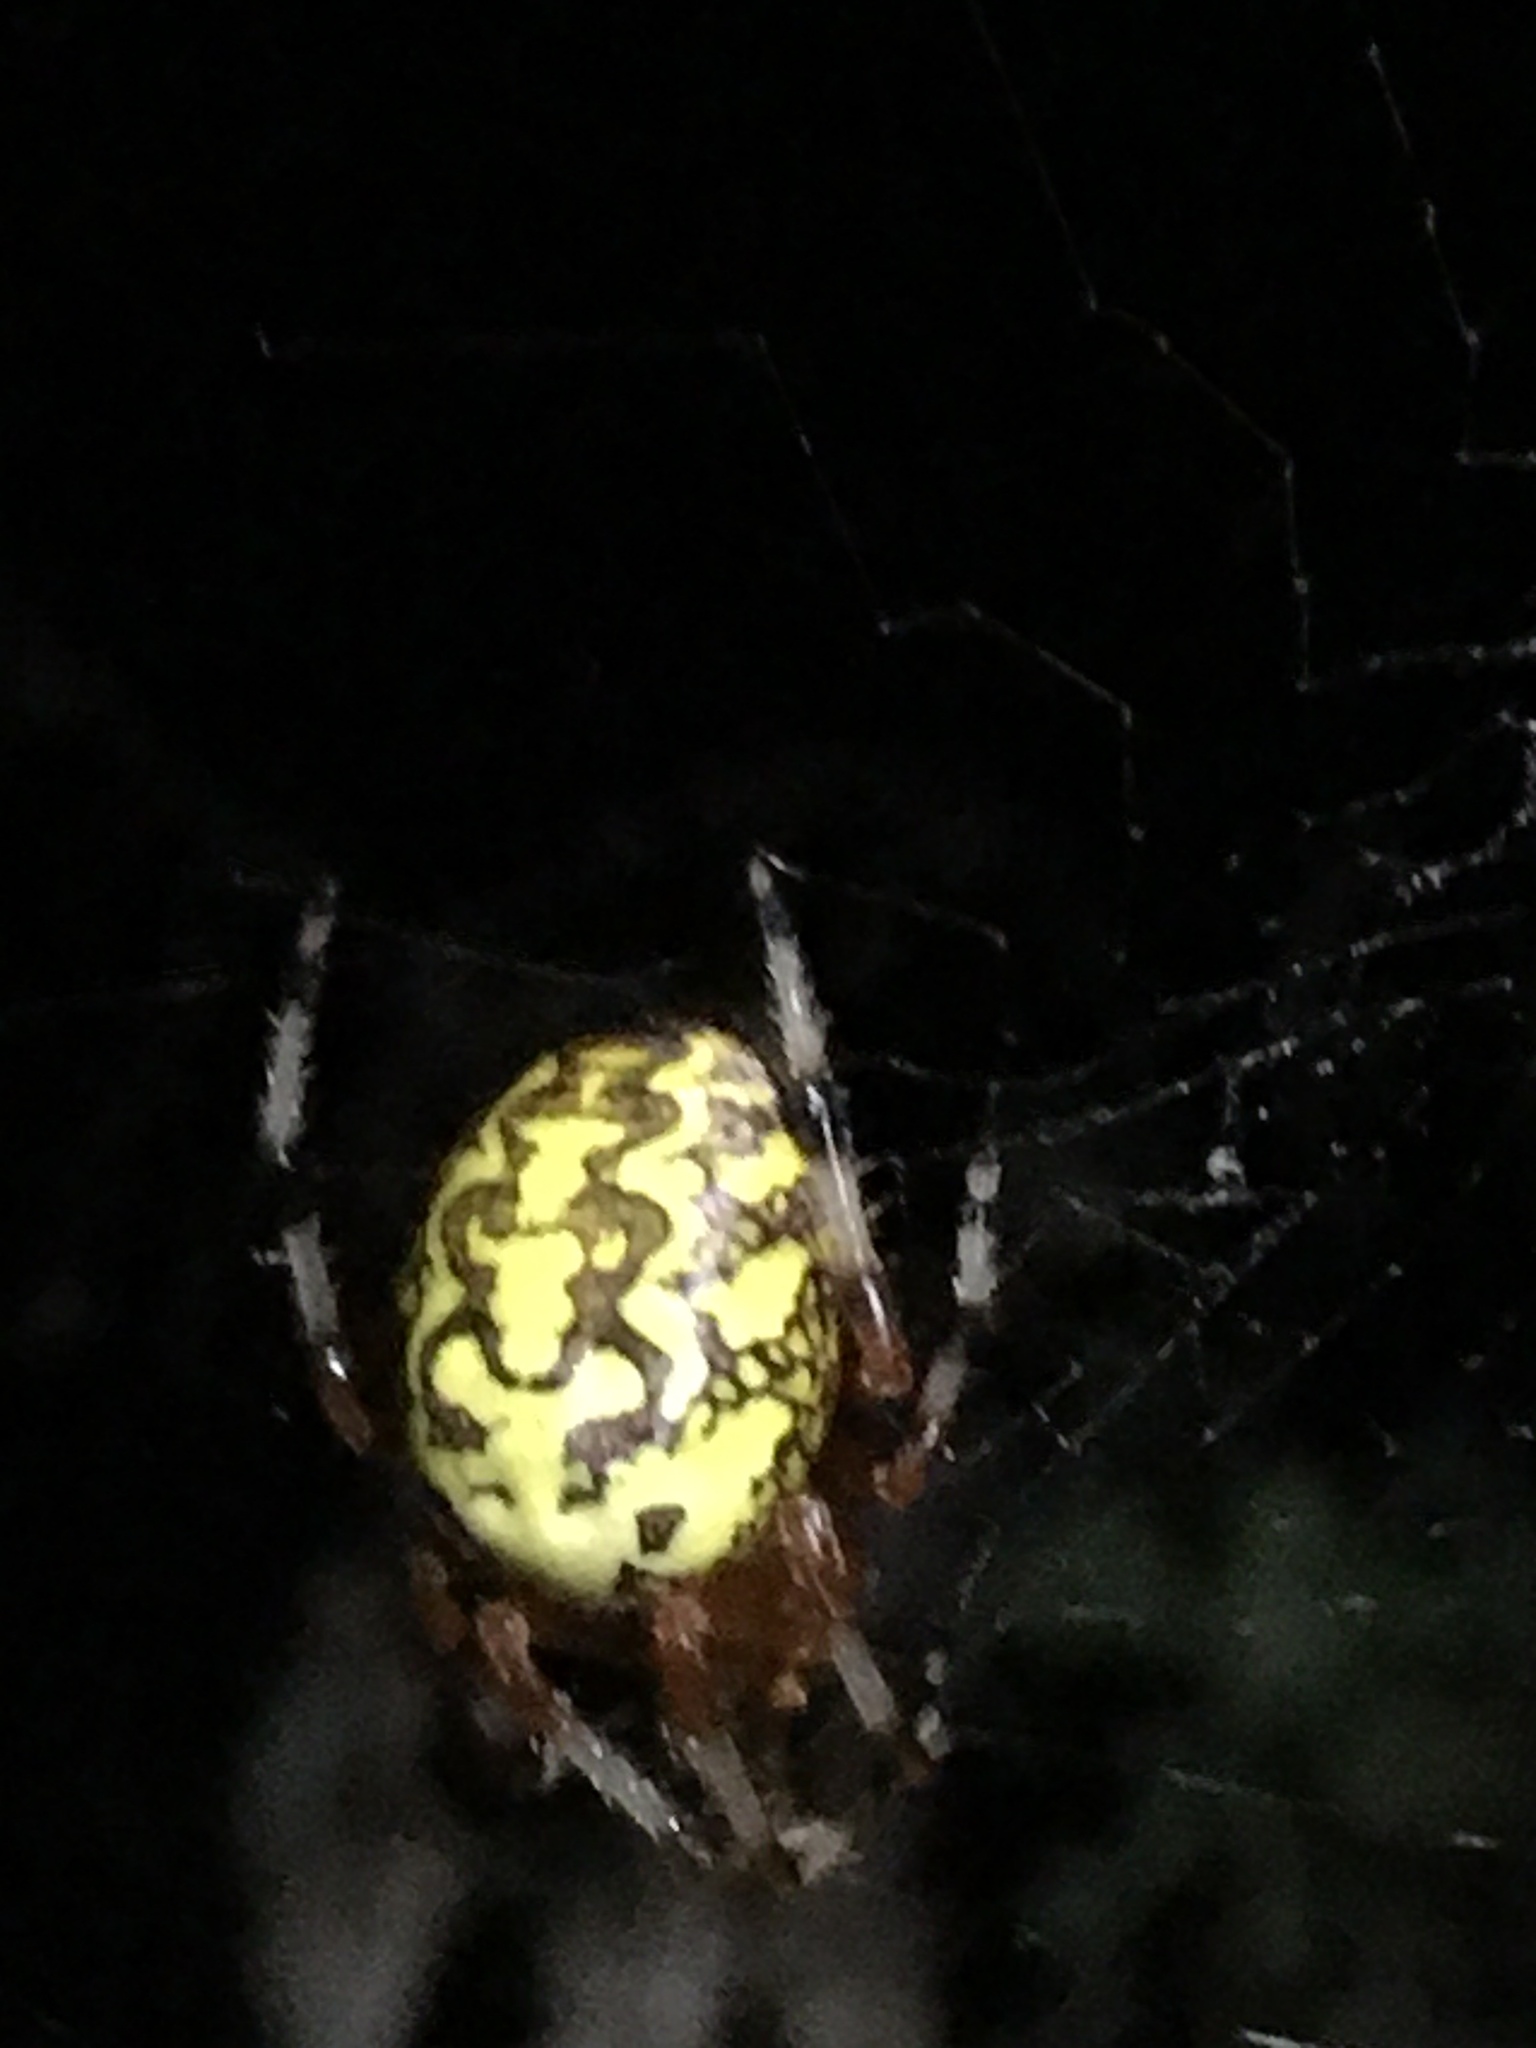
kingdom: Animalia
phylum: Arthropoda
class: Arachnida
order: Araneae
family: Araneidae
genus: Araneus
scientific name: Araneus marmoreus
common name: Marbled orbweaver
